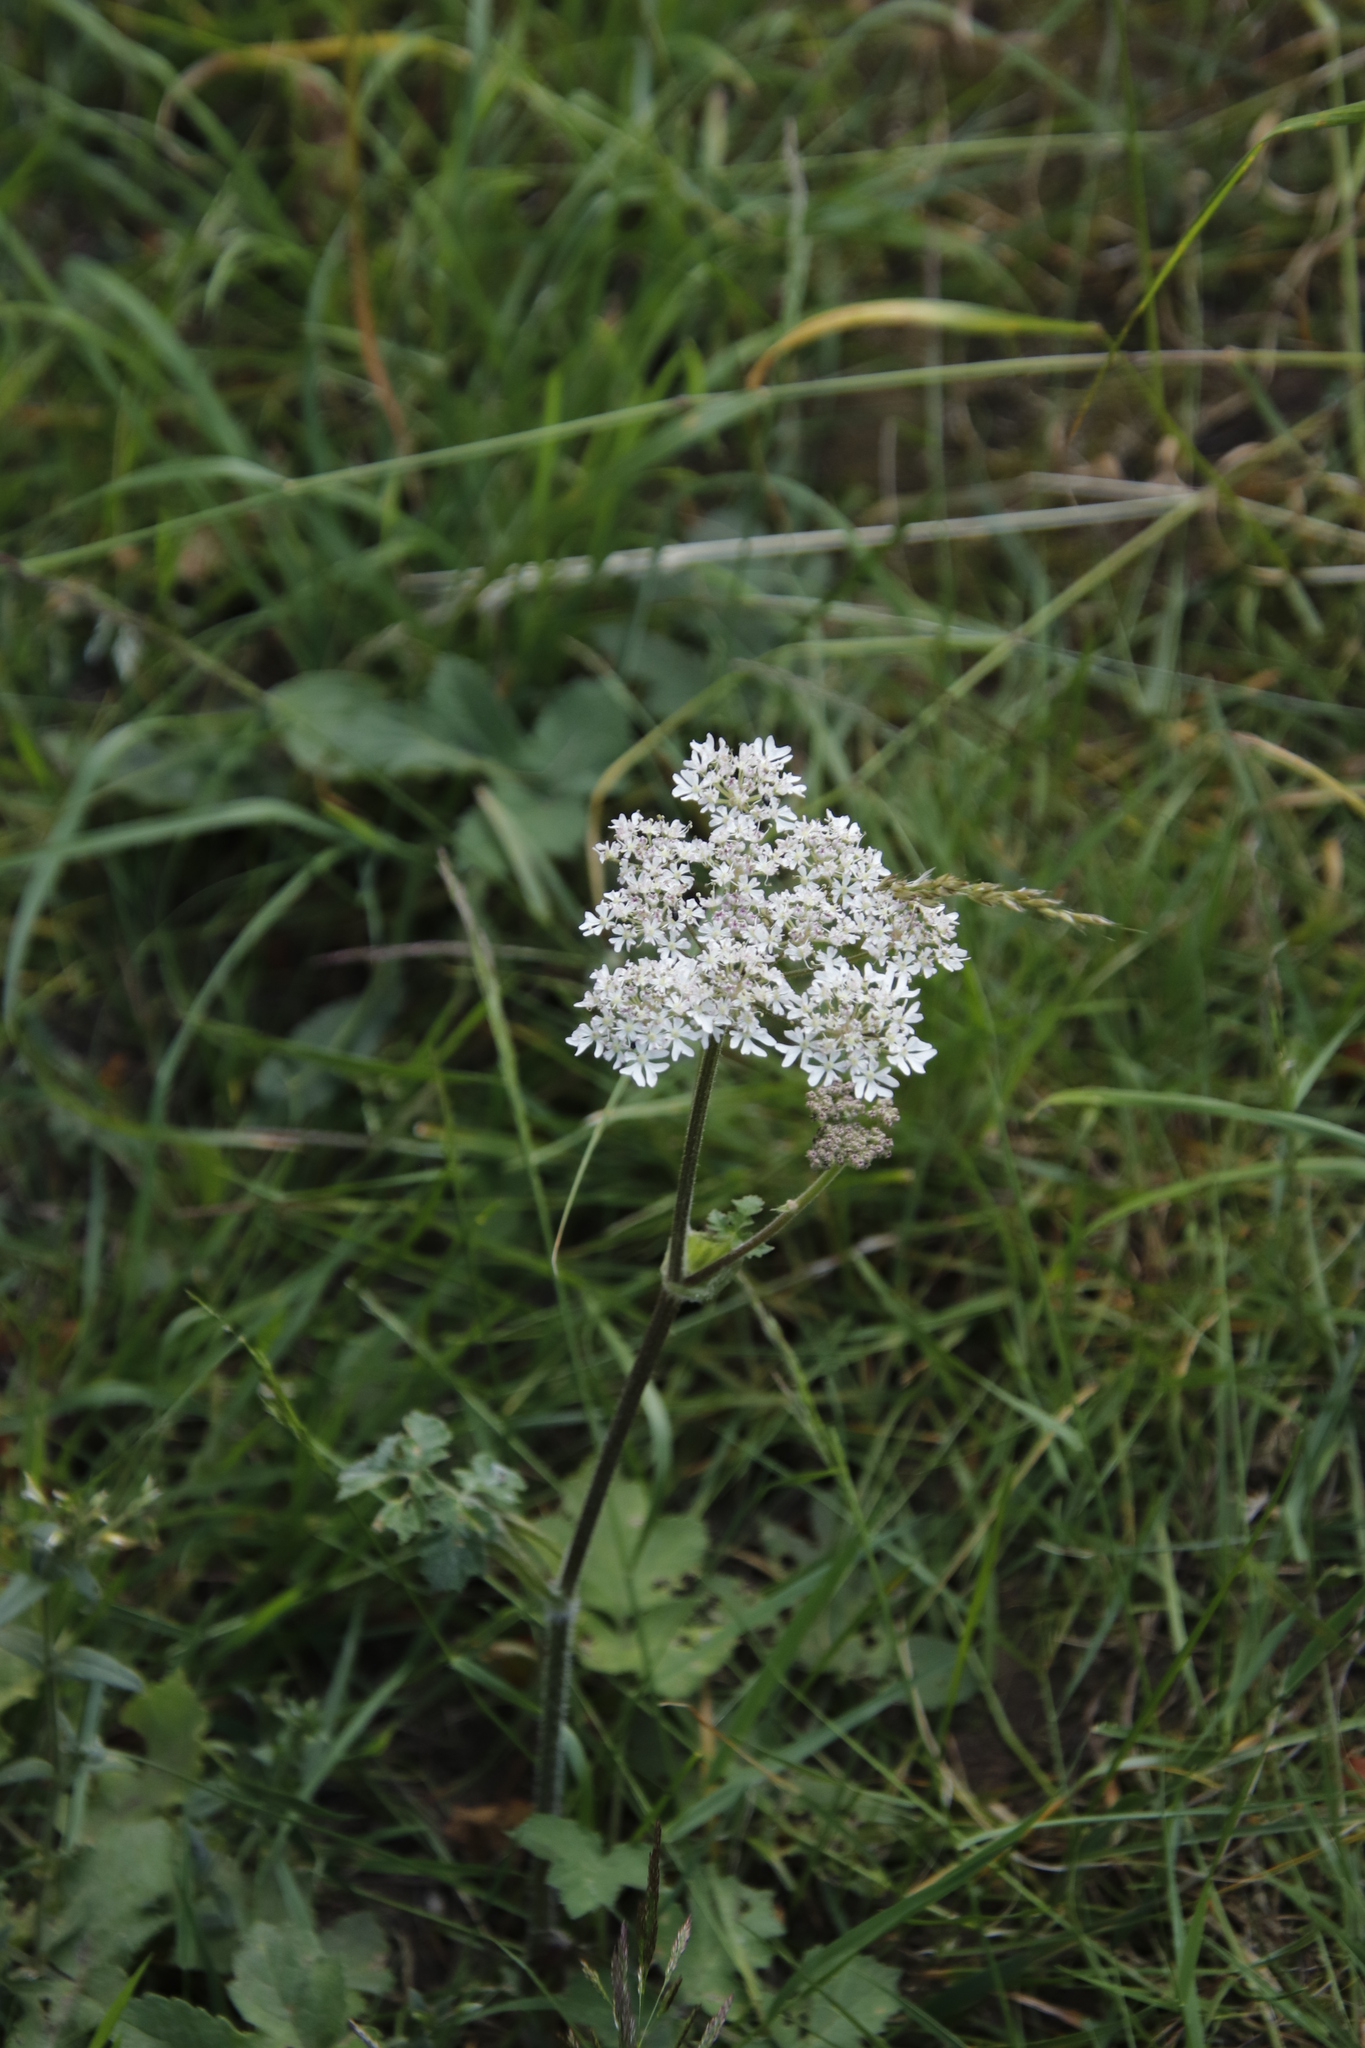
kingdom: Plantae
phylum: Tracheophyta
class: Magnoliopsida
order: Apiales
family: Apiaceae
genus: Heracleum
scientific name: Heracleum sphondylium
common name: Hogweed
